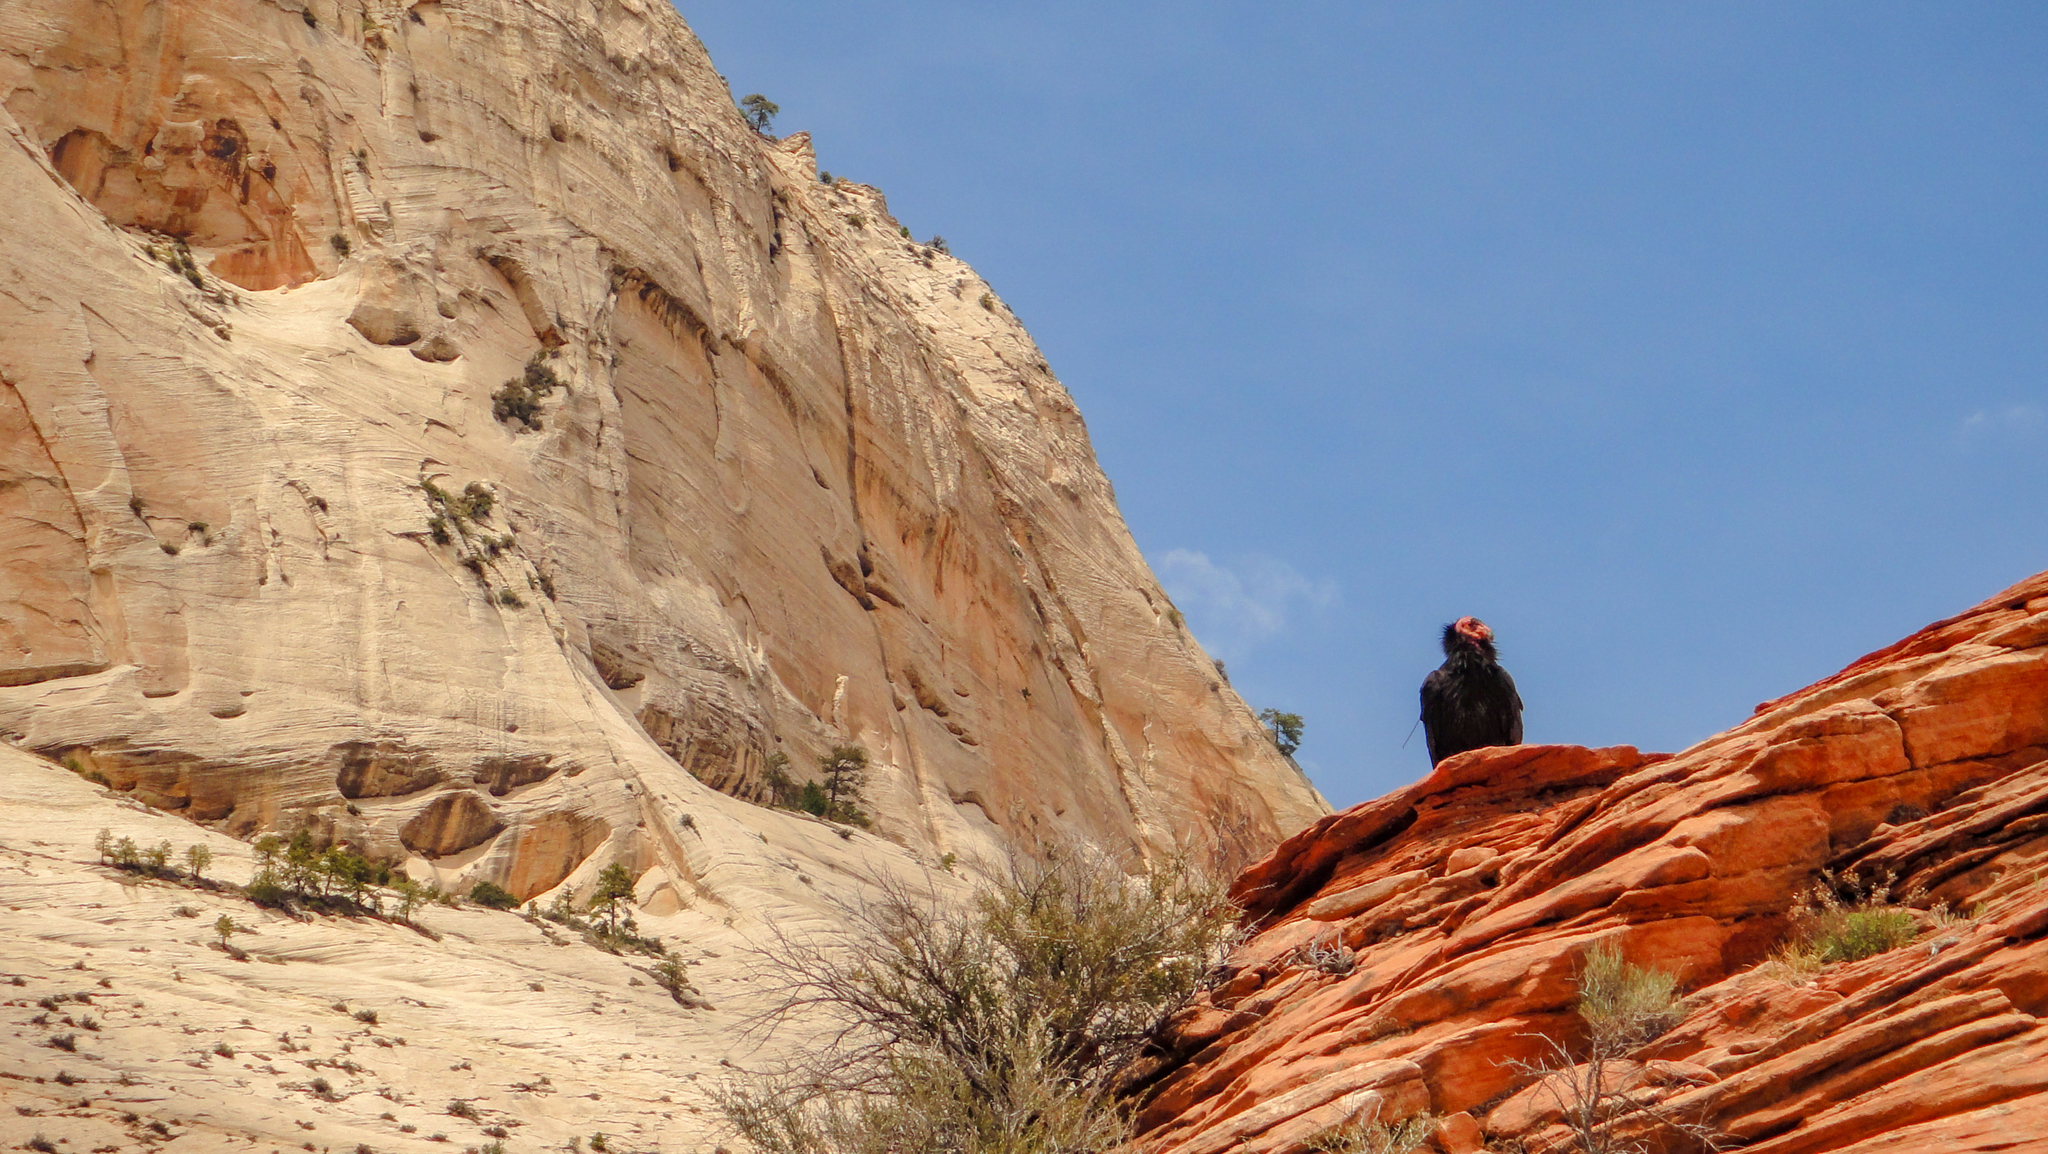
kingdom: Animalia
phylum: Chordata
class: Aves
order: Accipitriformes
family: Cathartidae
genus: Gymnogyps
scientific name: Gymnogyps californianus
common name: California condor
